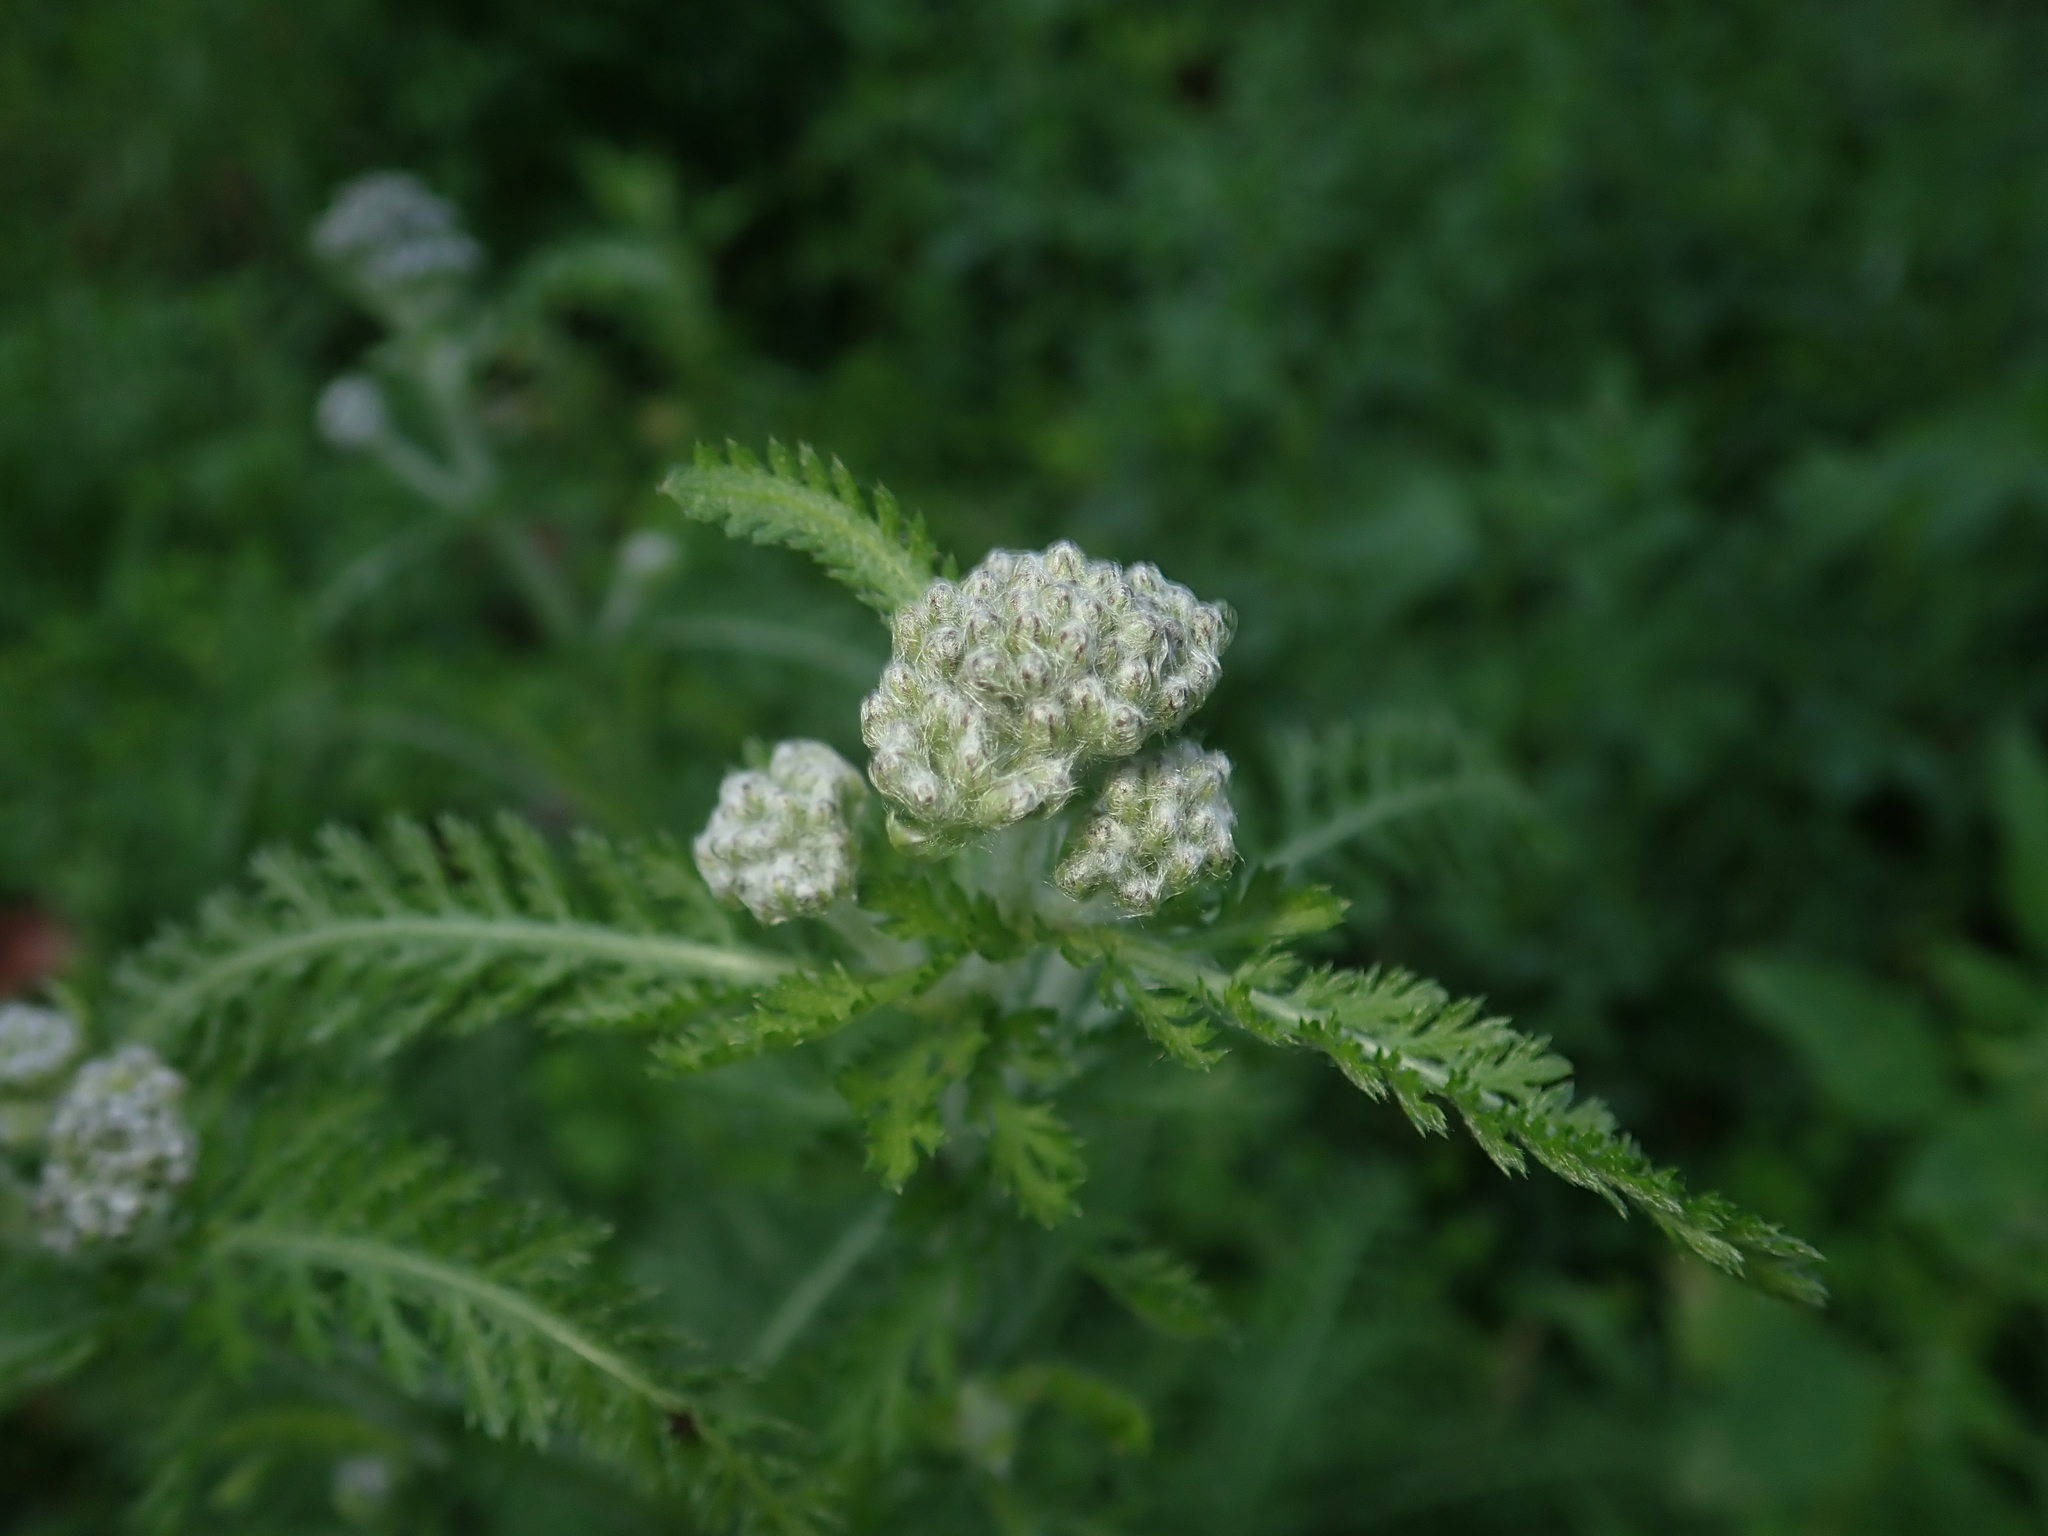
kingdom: Plantae
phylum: Tracheophyta
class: Magnoliopsida
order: Asterales
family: Asteraceae
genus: Achillea
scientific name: Achillea millefolium
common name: Yarrow
